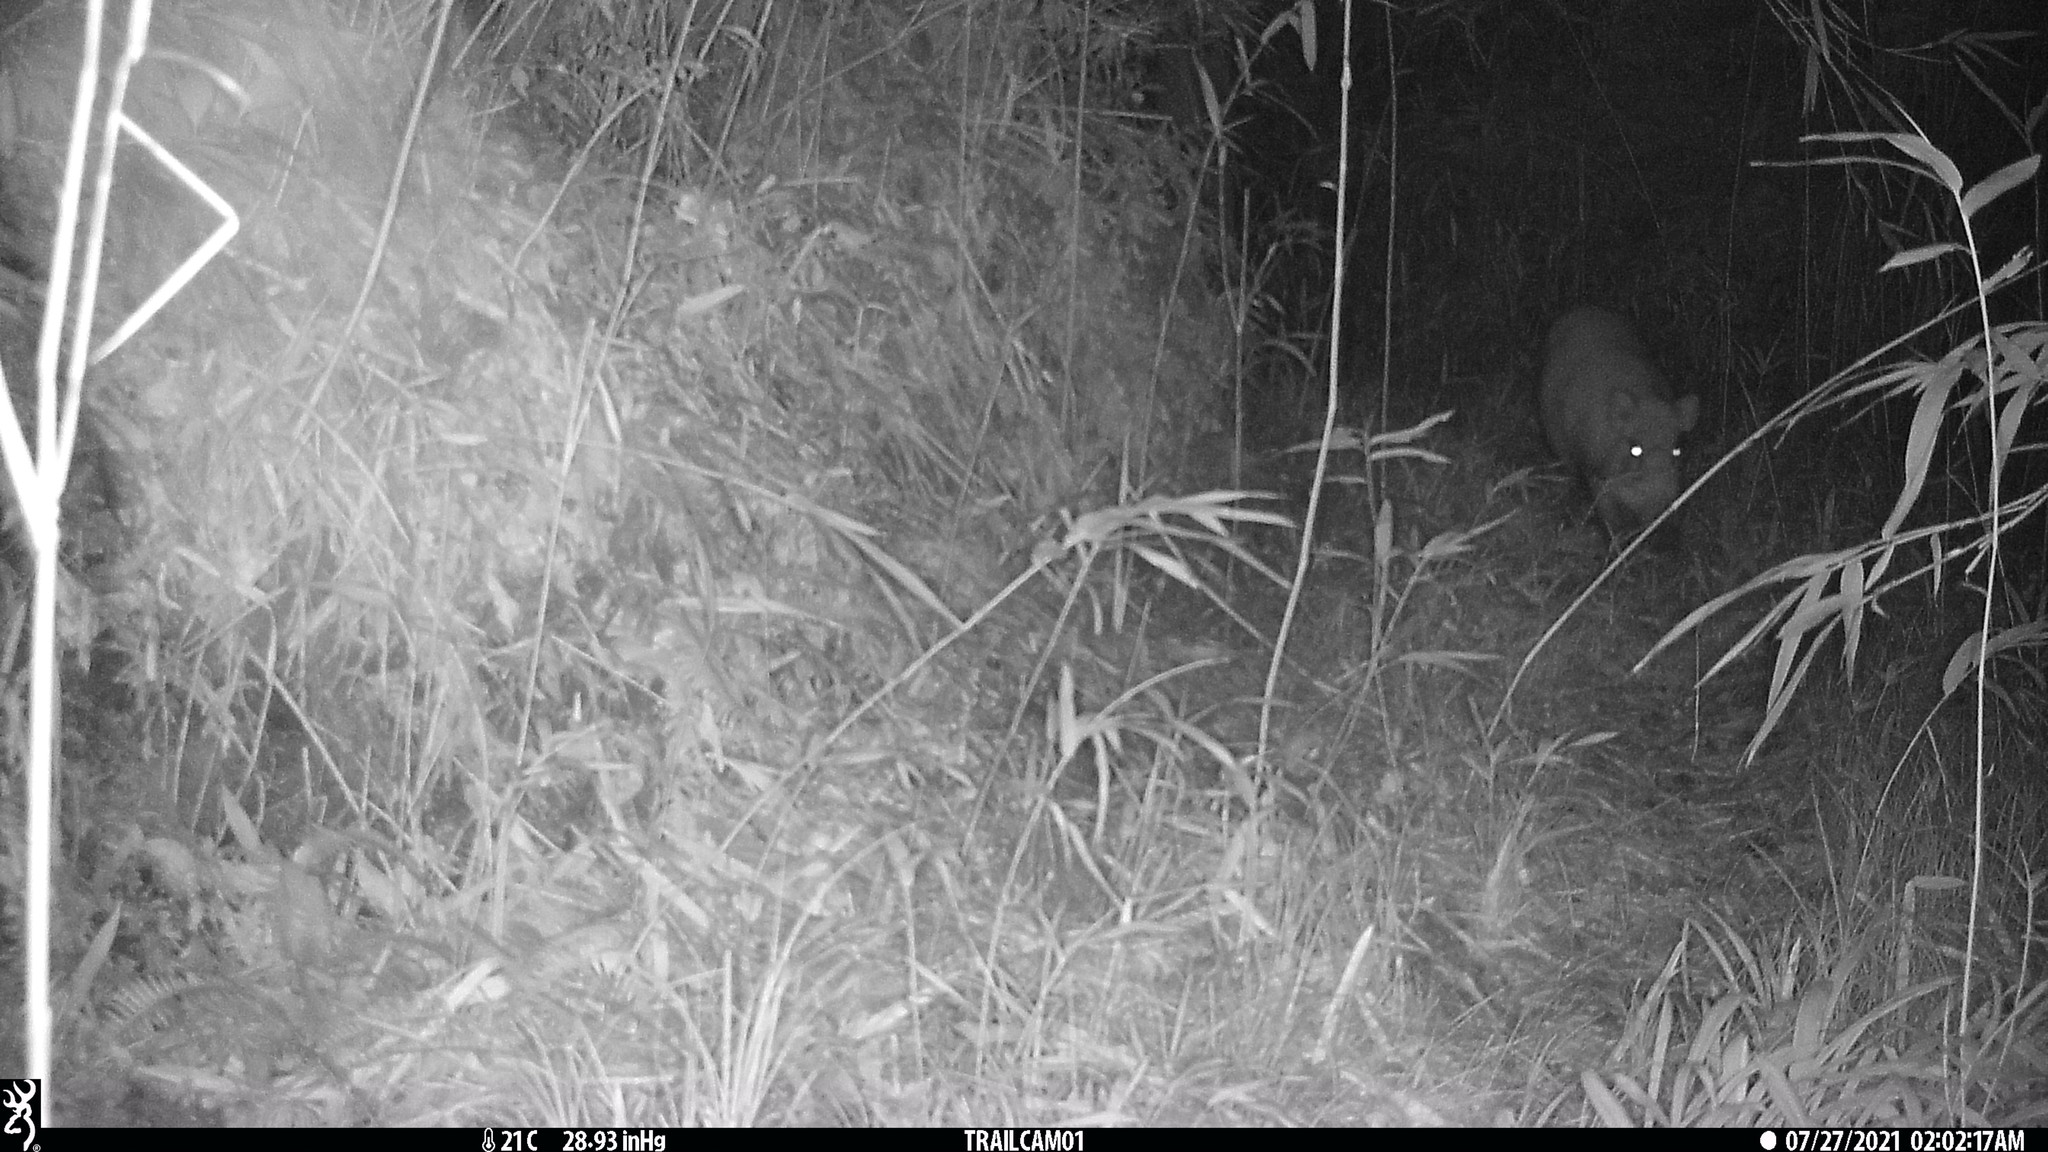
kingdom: Animalia
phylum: Chordata
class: Mammalia
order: Artiodactyla
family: Suidae
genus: Sus
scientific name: Sus scrofa
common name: Wild boar
